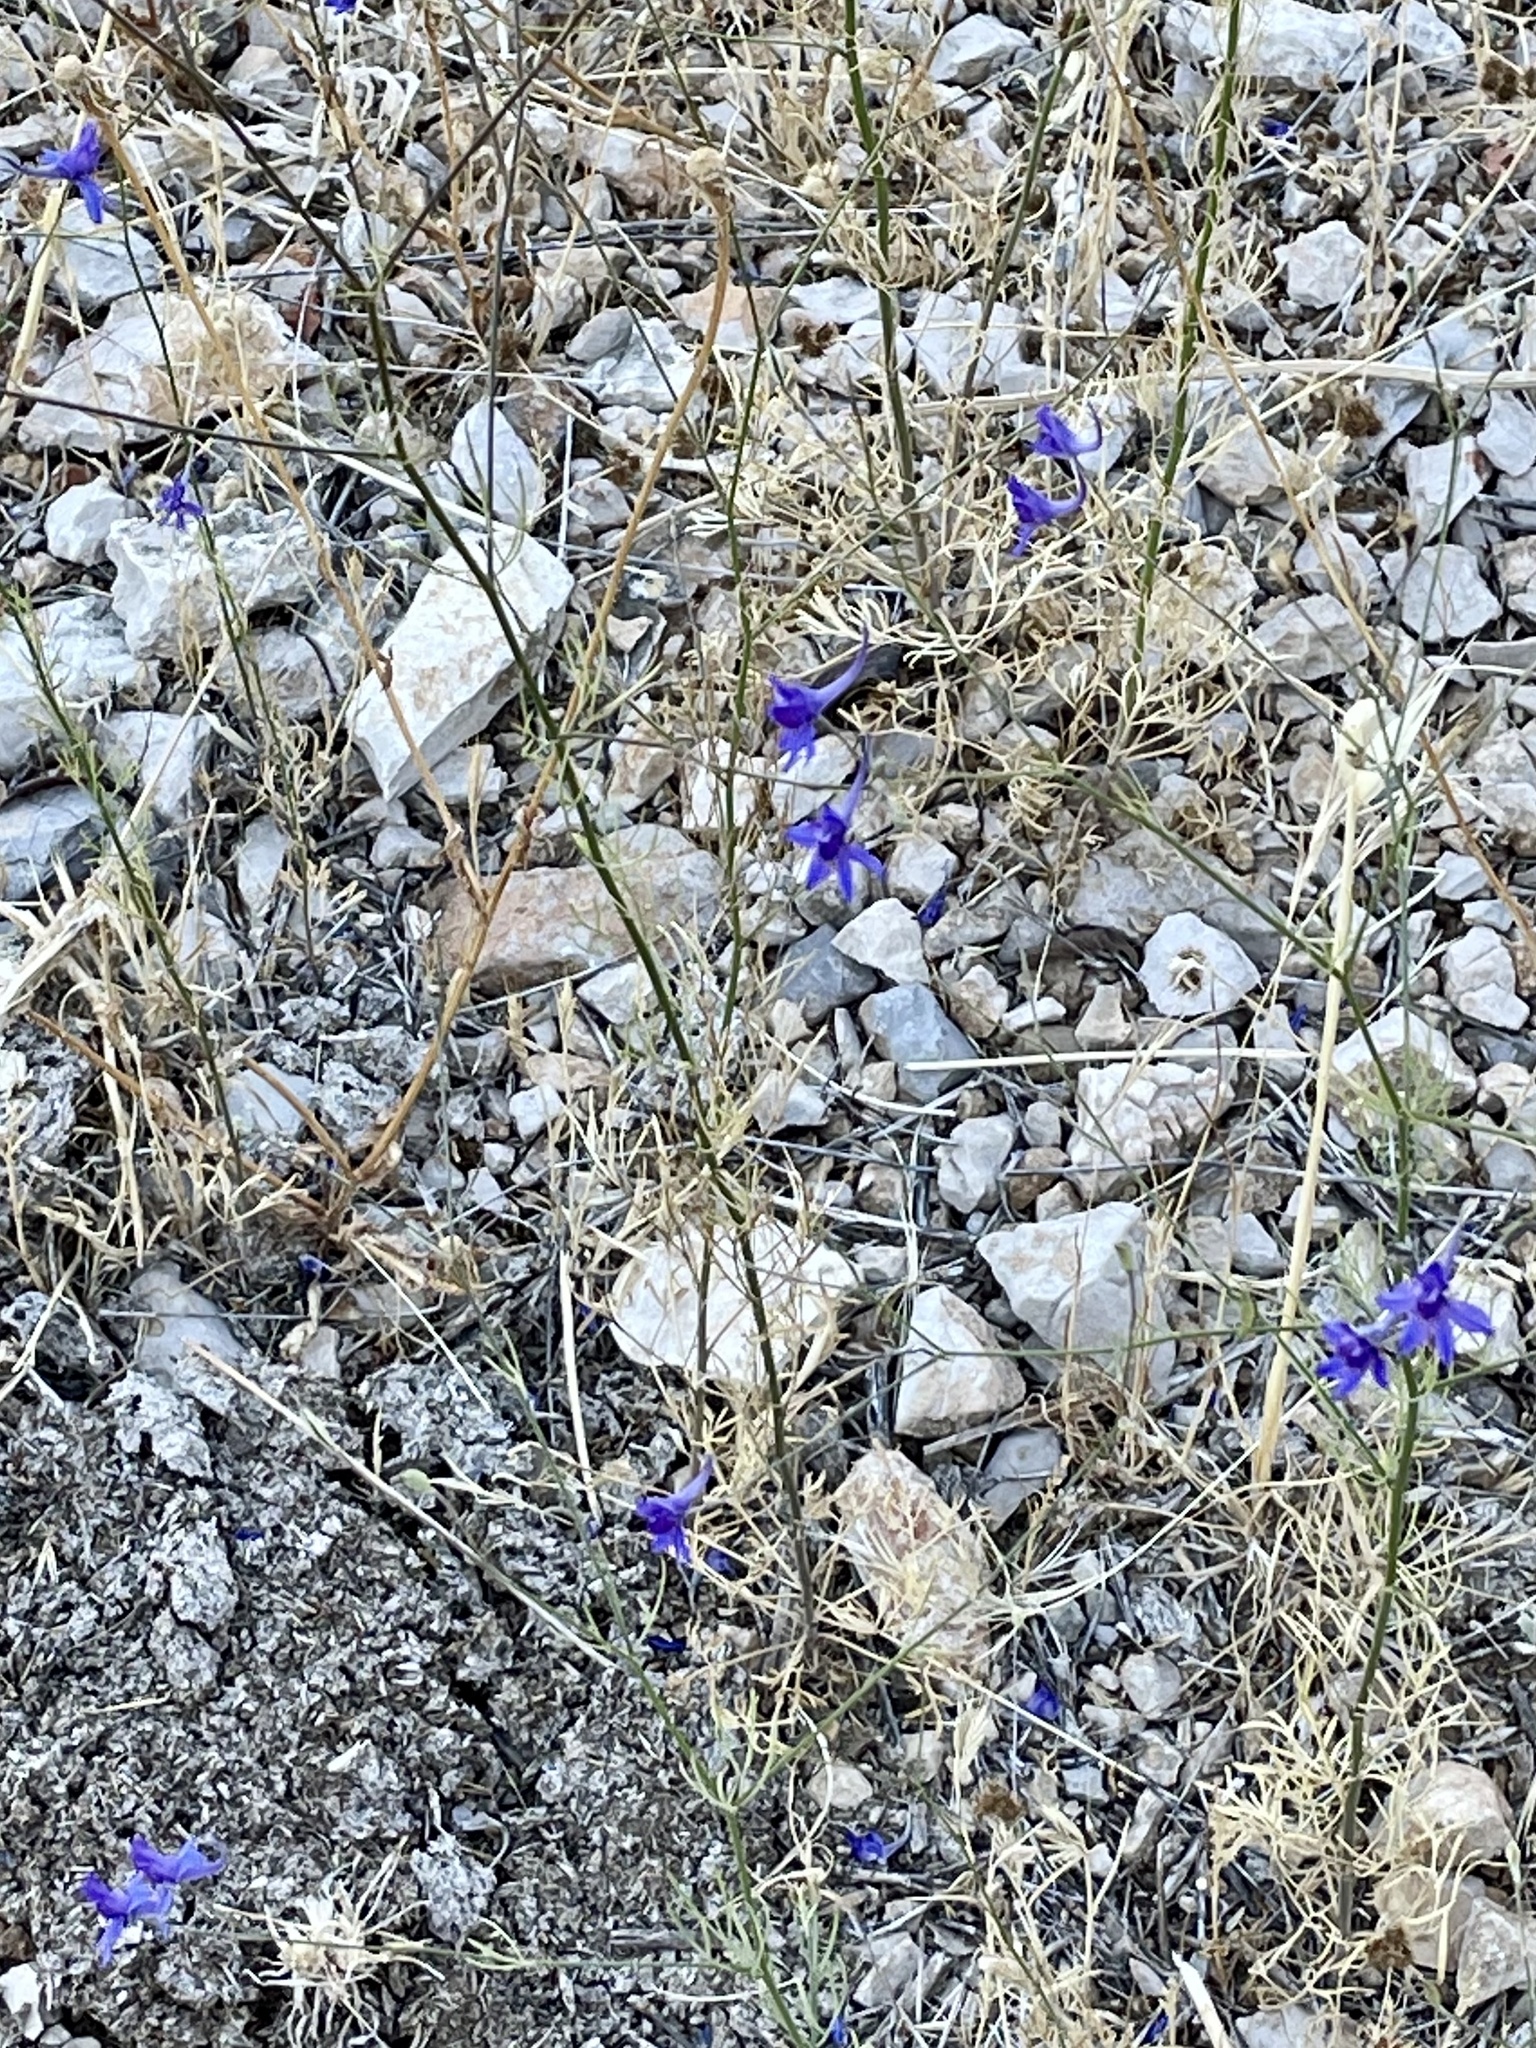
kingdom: Plantae
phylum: Tracheophyta
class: Magnoliopsida
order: Ranunculales
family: Ranunculaceae
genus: Delphinium
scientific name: Delphinium consolida
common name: Branching larkspur
